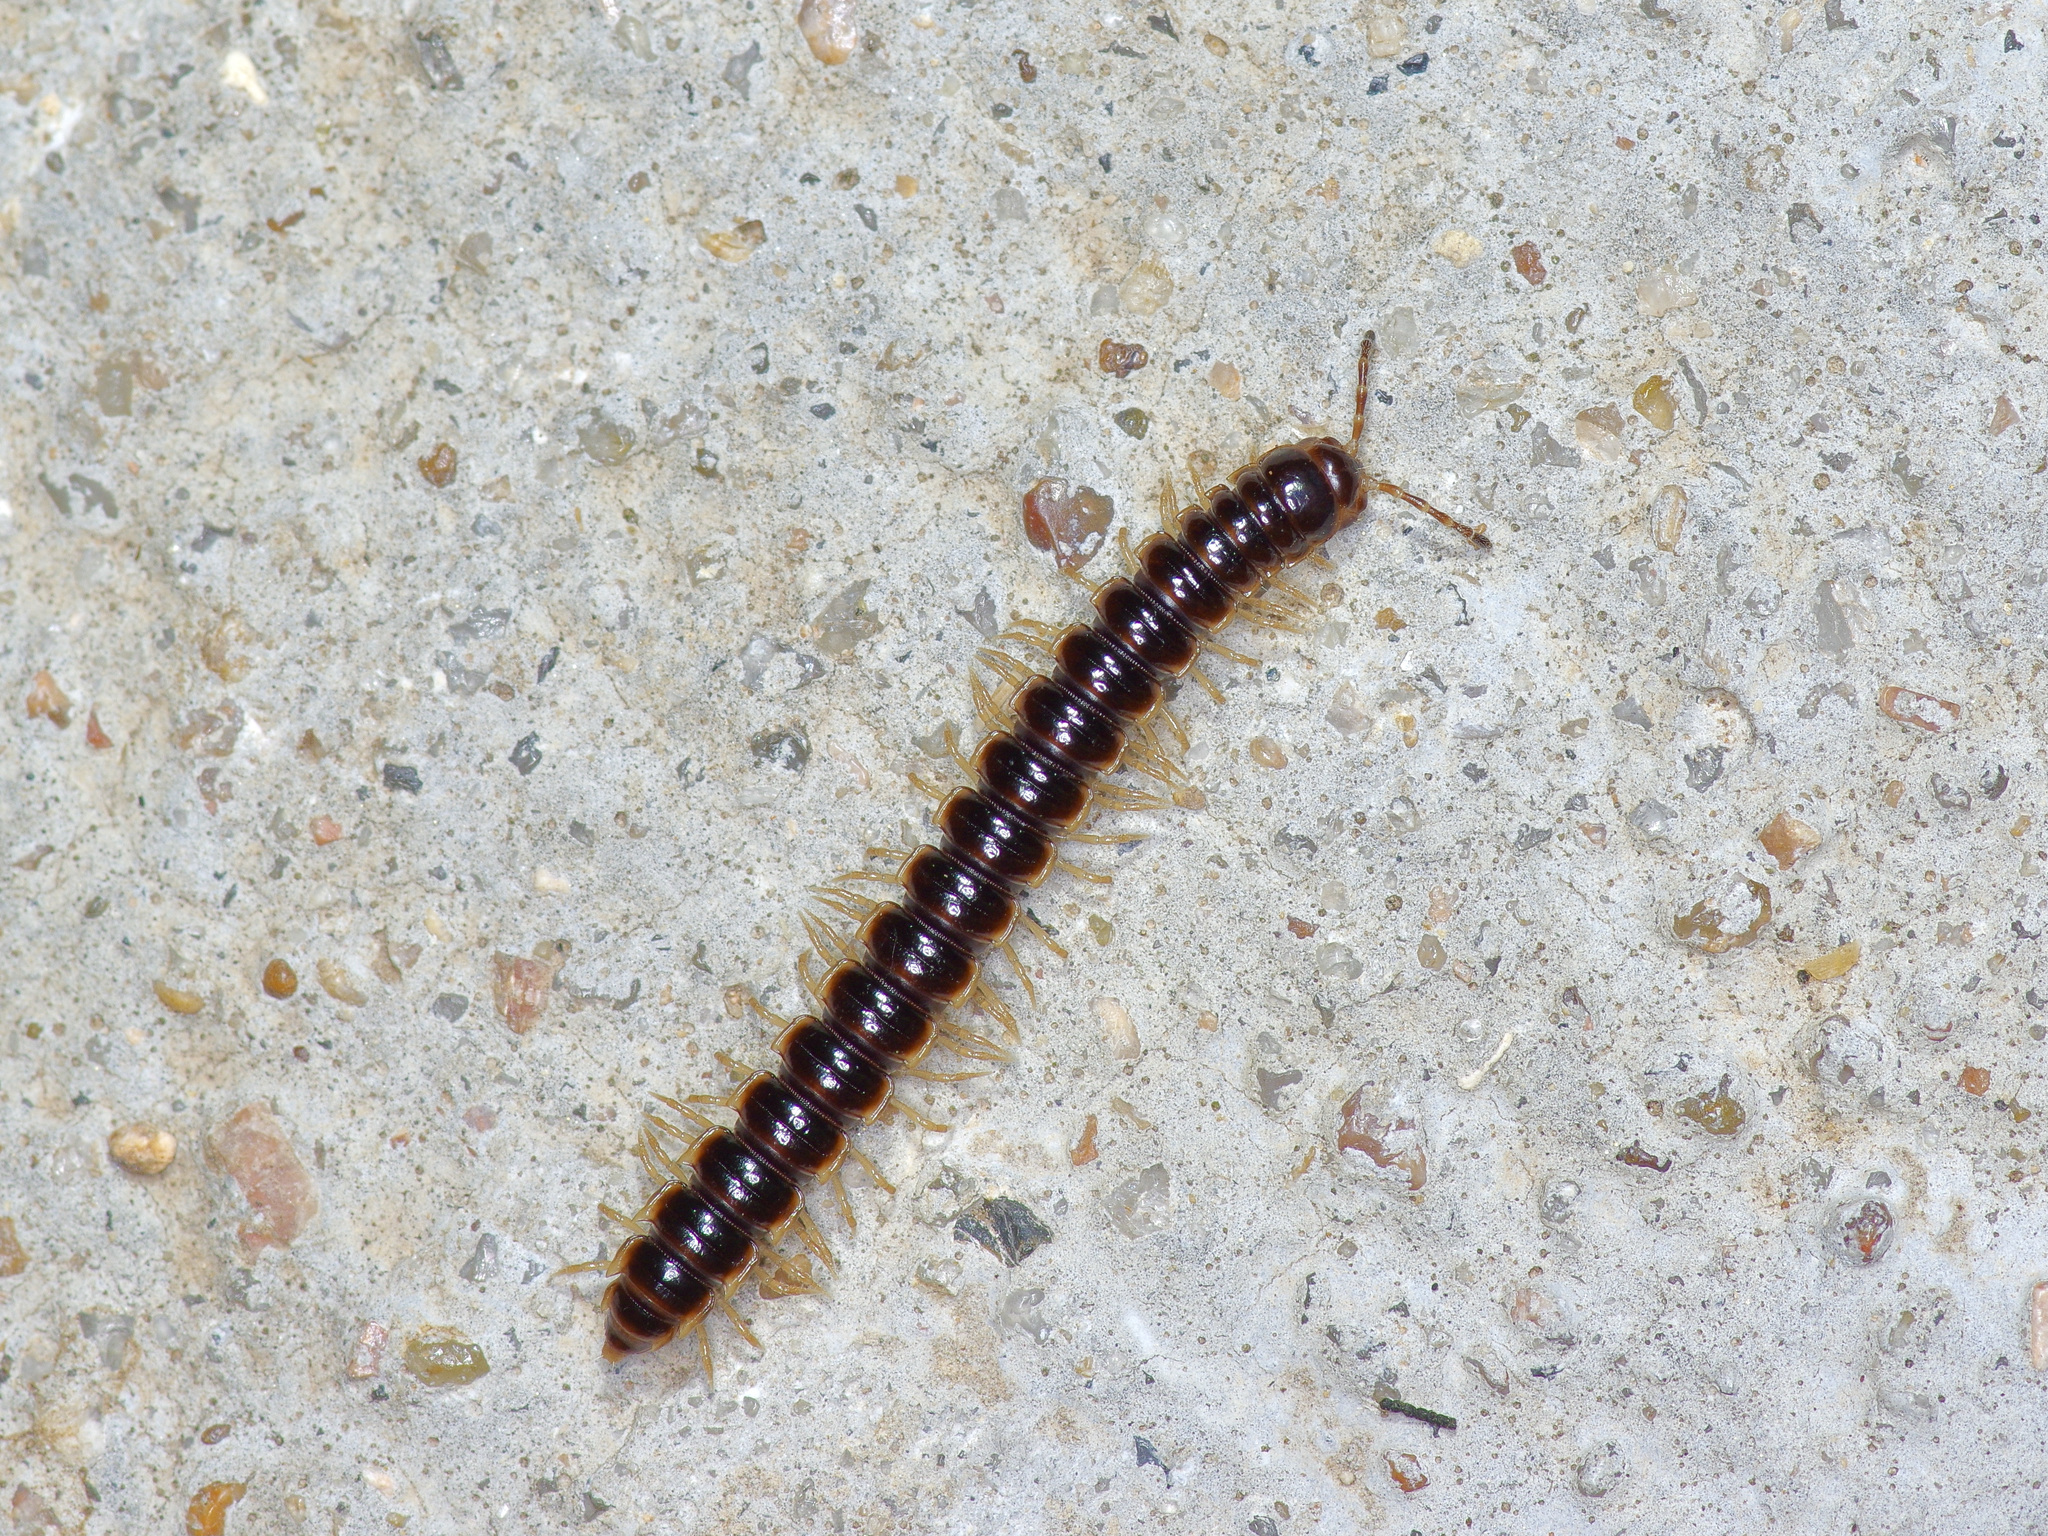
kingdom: Animalia
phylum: Arthropoda
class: Diplopoda
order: Polydesmida
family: Paradoxosomatidae
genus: Oxidus
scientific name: Oxidus gracilis
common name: Greenhouse millipede
